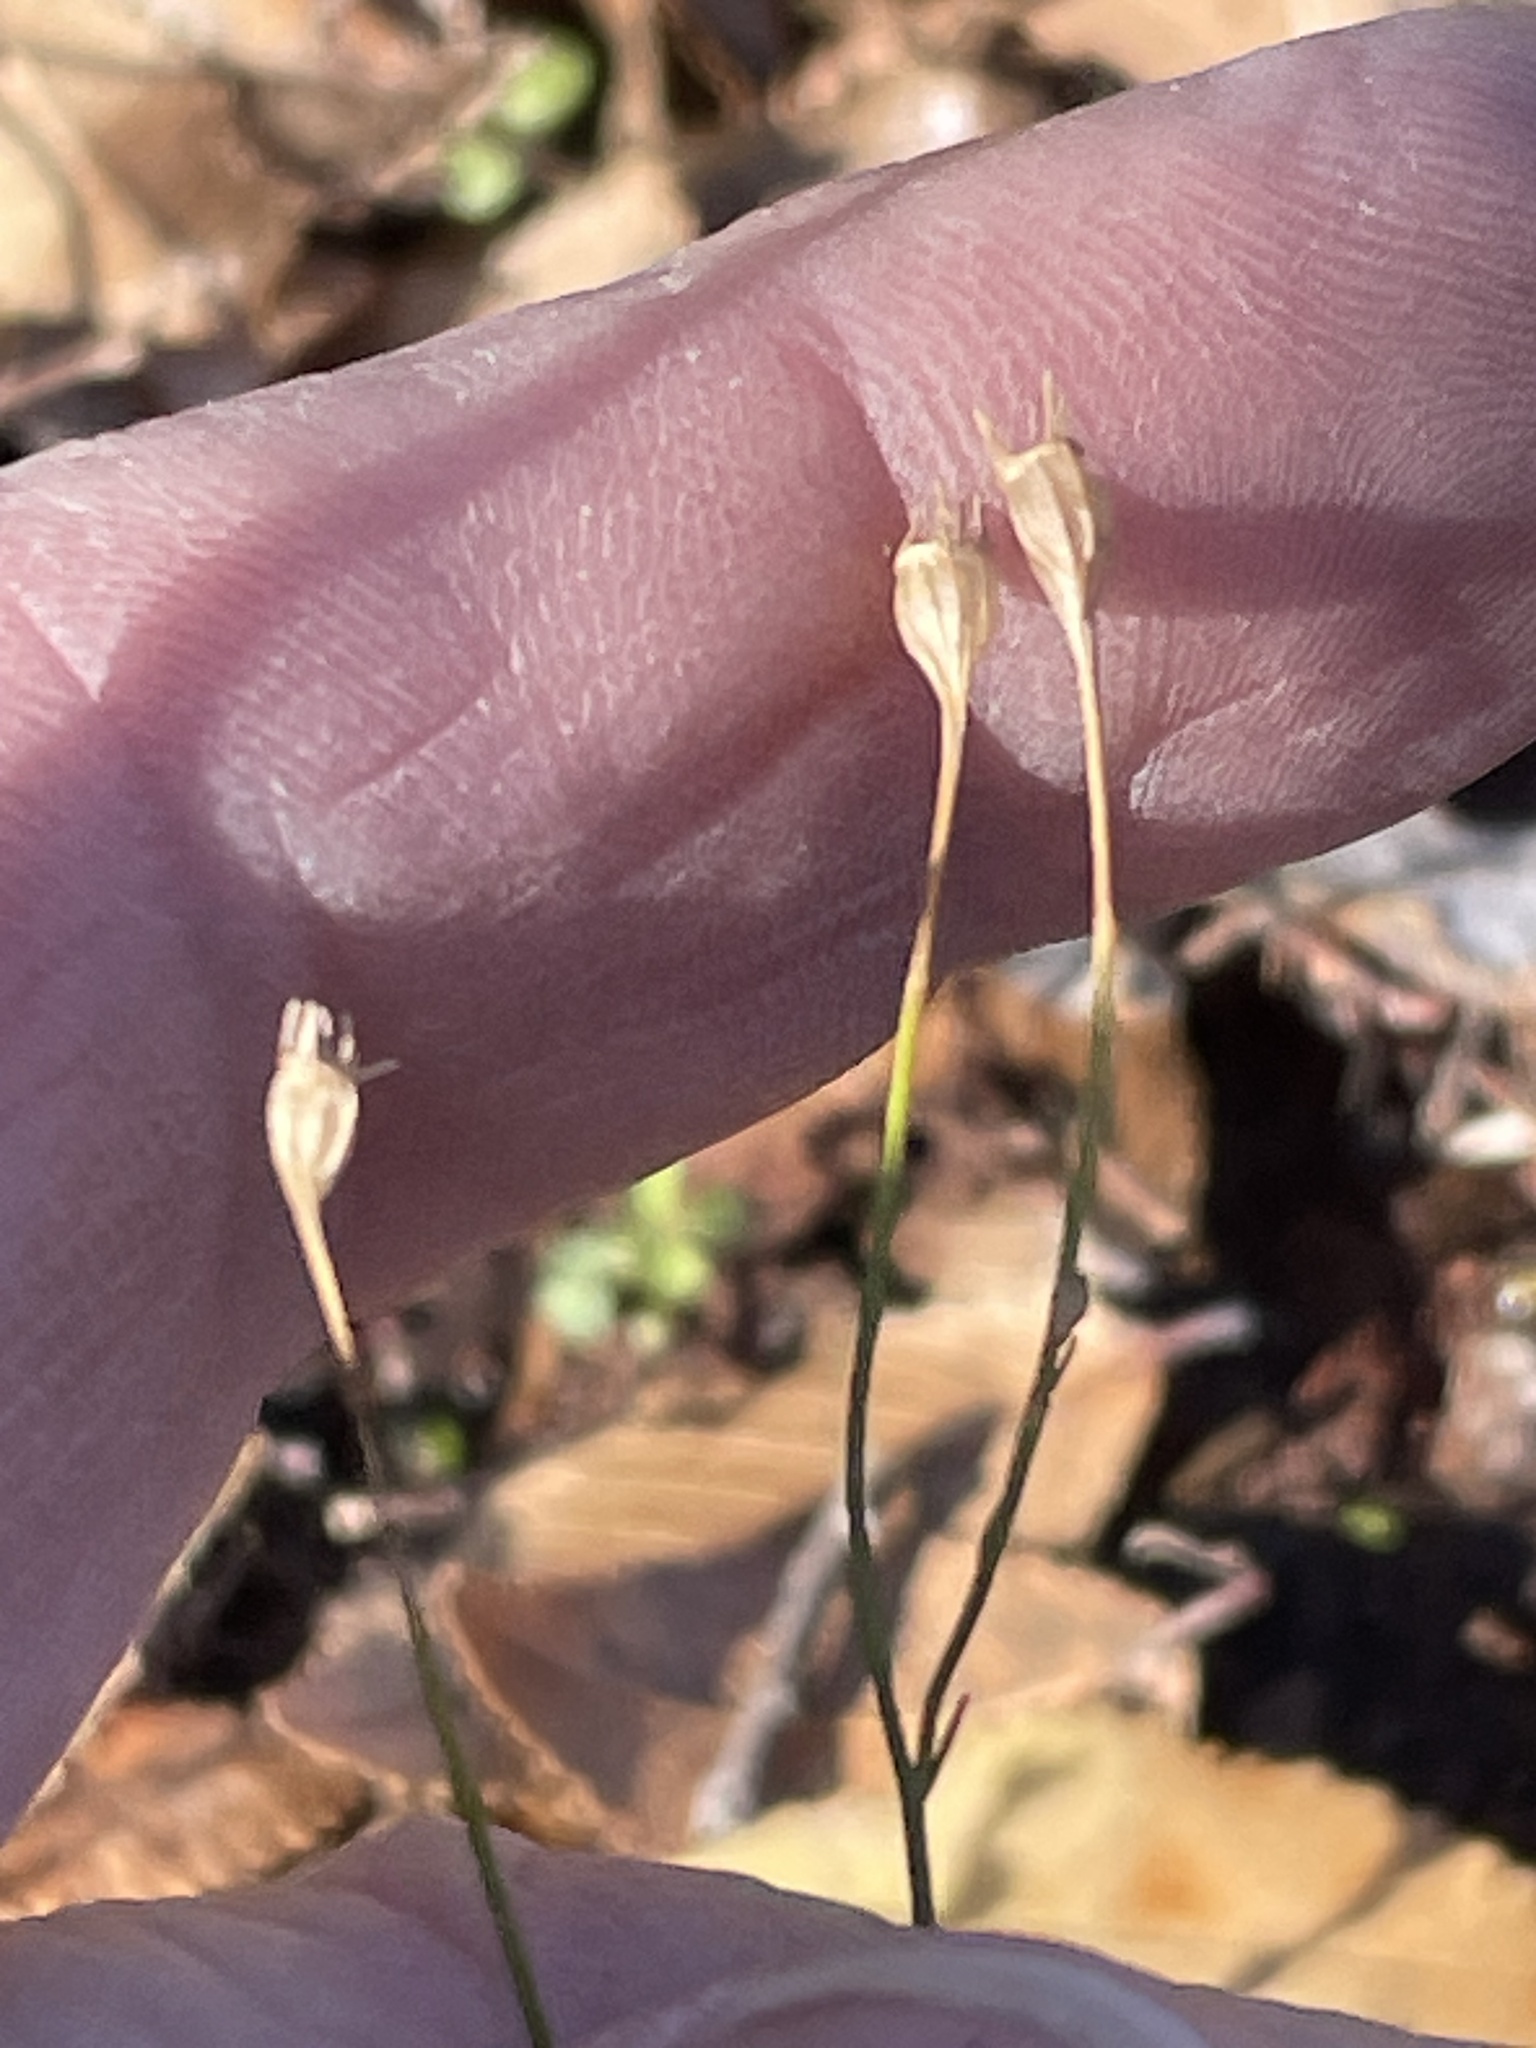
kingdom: Plantae
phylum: Tracheophyta
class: Magnoliopsida
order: Asterales
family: Campanulaceae
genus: Wahlenbergia
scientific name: Wahlenbergia marginata
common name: Southern rockbell
